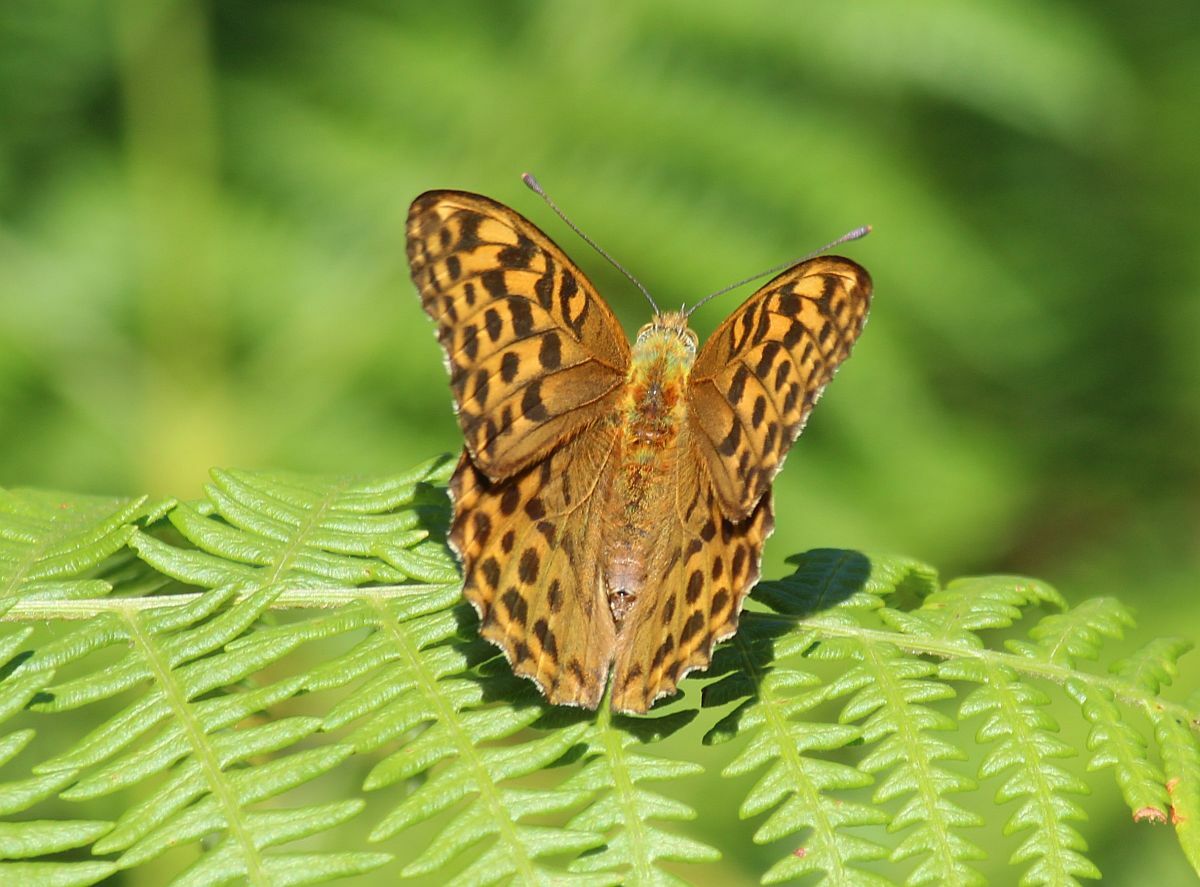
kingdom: Animalia
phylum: Arthropoda
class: Insecta
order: Lepidoptera
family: Nymphalidae
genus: Argynnis
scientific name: Argynnis paphia
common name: Silver-washed fritillary
